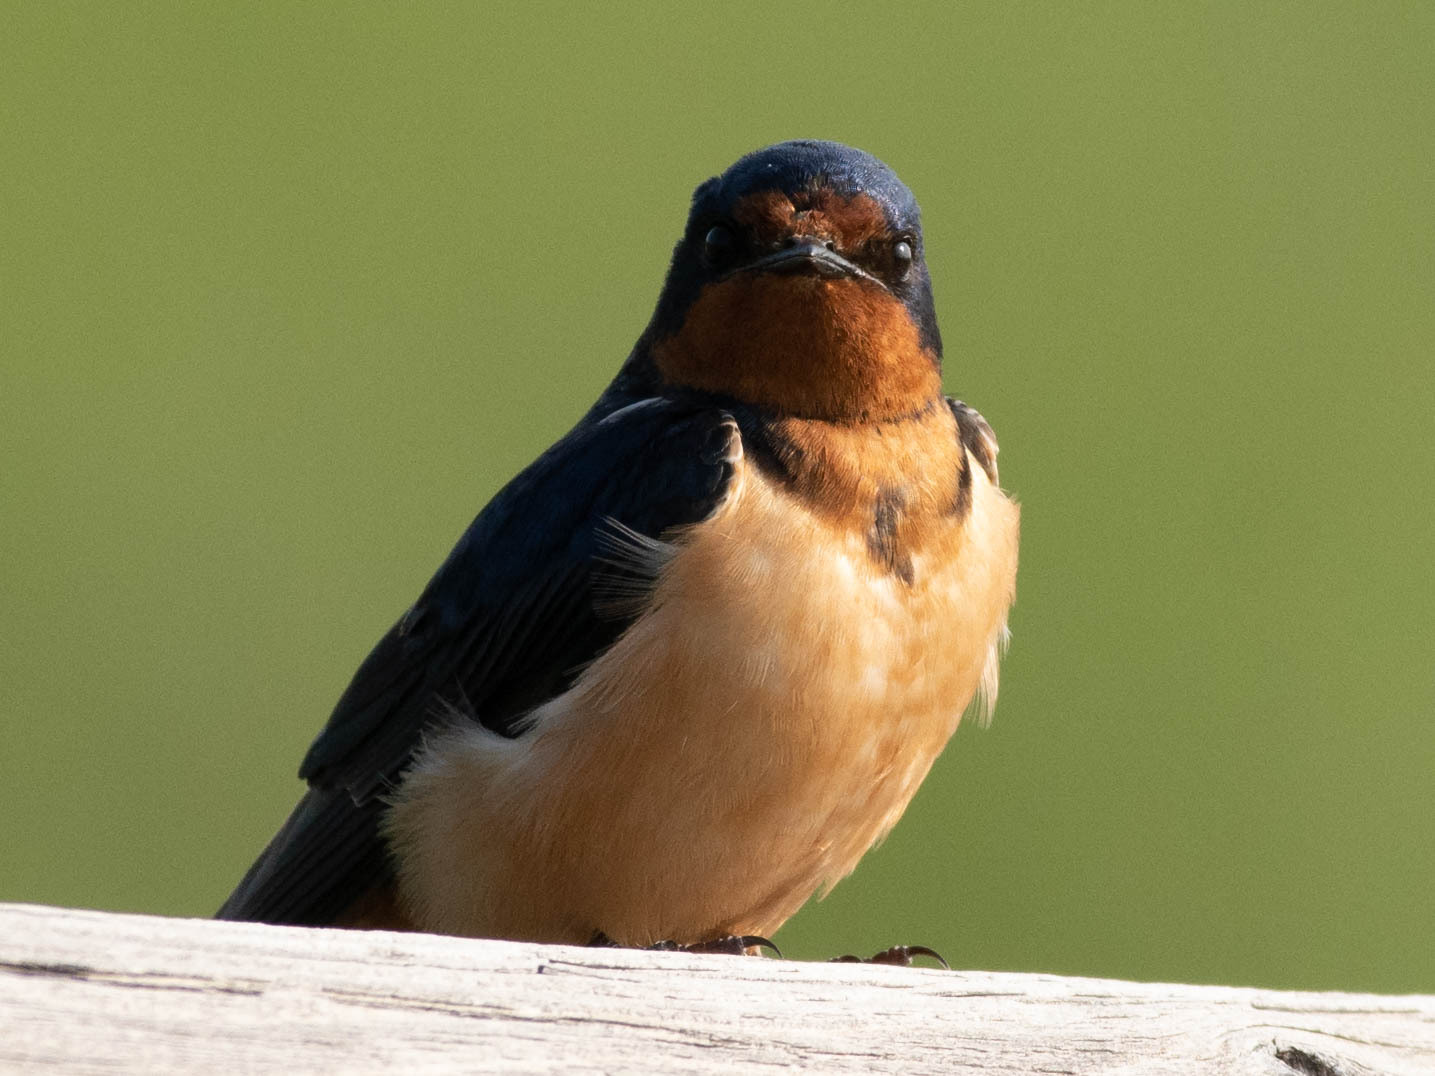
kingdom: Animalia
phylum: Chordata
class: Aves
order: Passeriformes
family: Hirundinidae
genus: Hirundo
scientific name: Hirundo rustica
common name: Barn swallow
